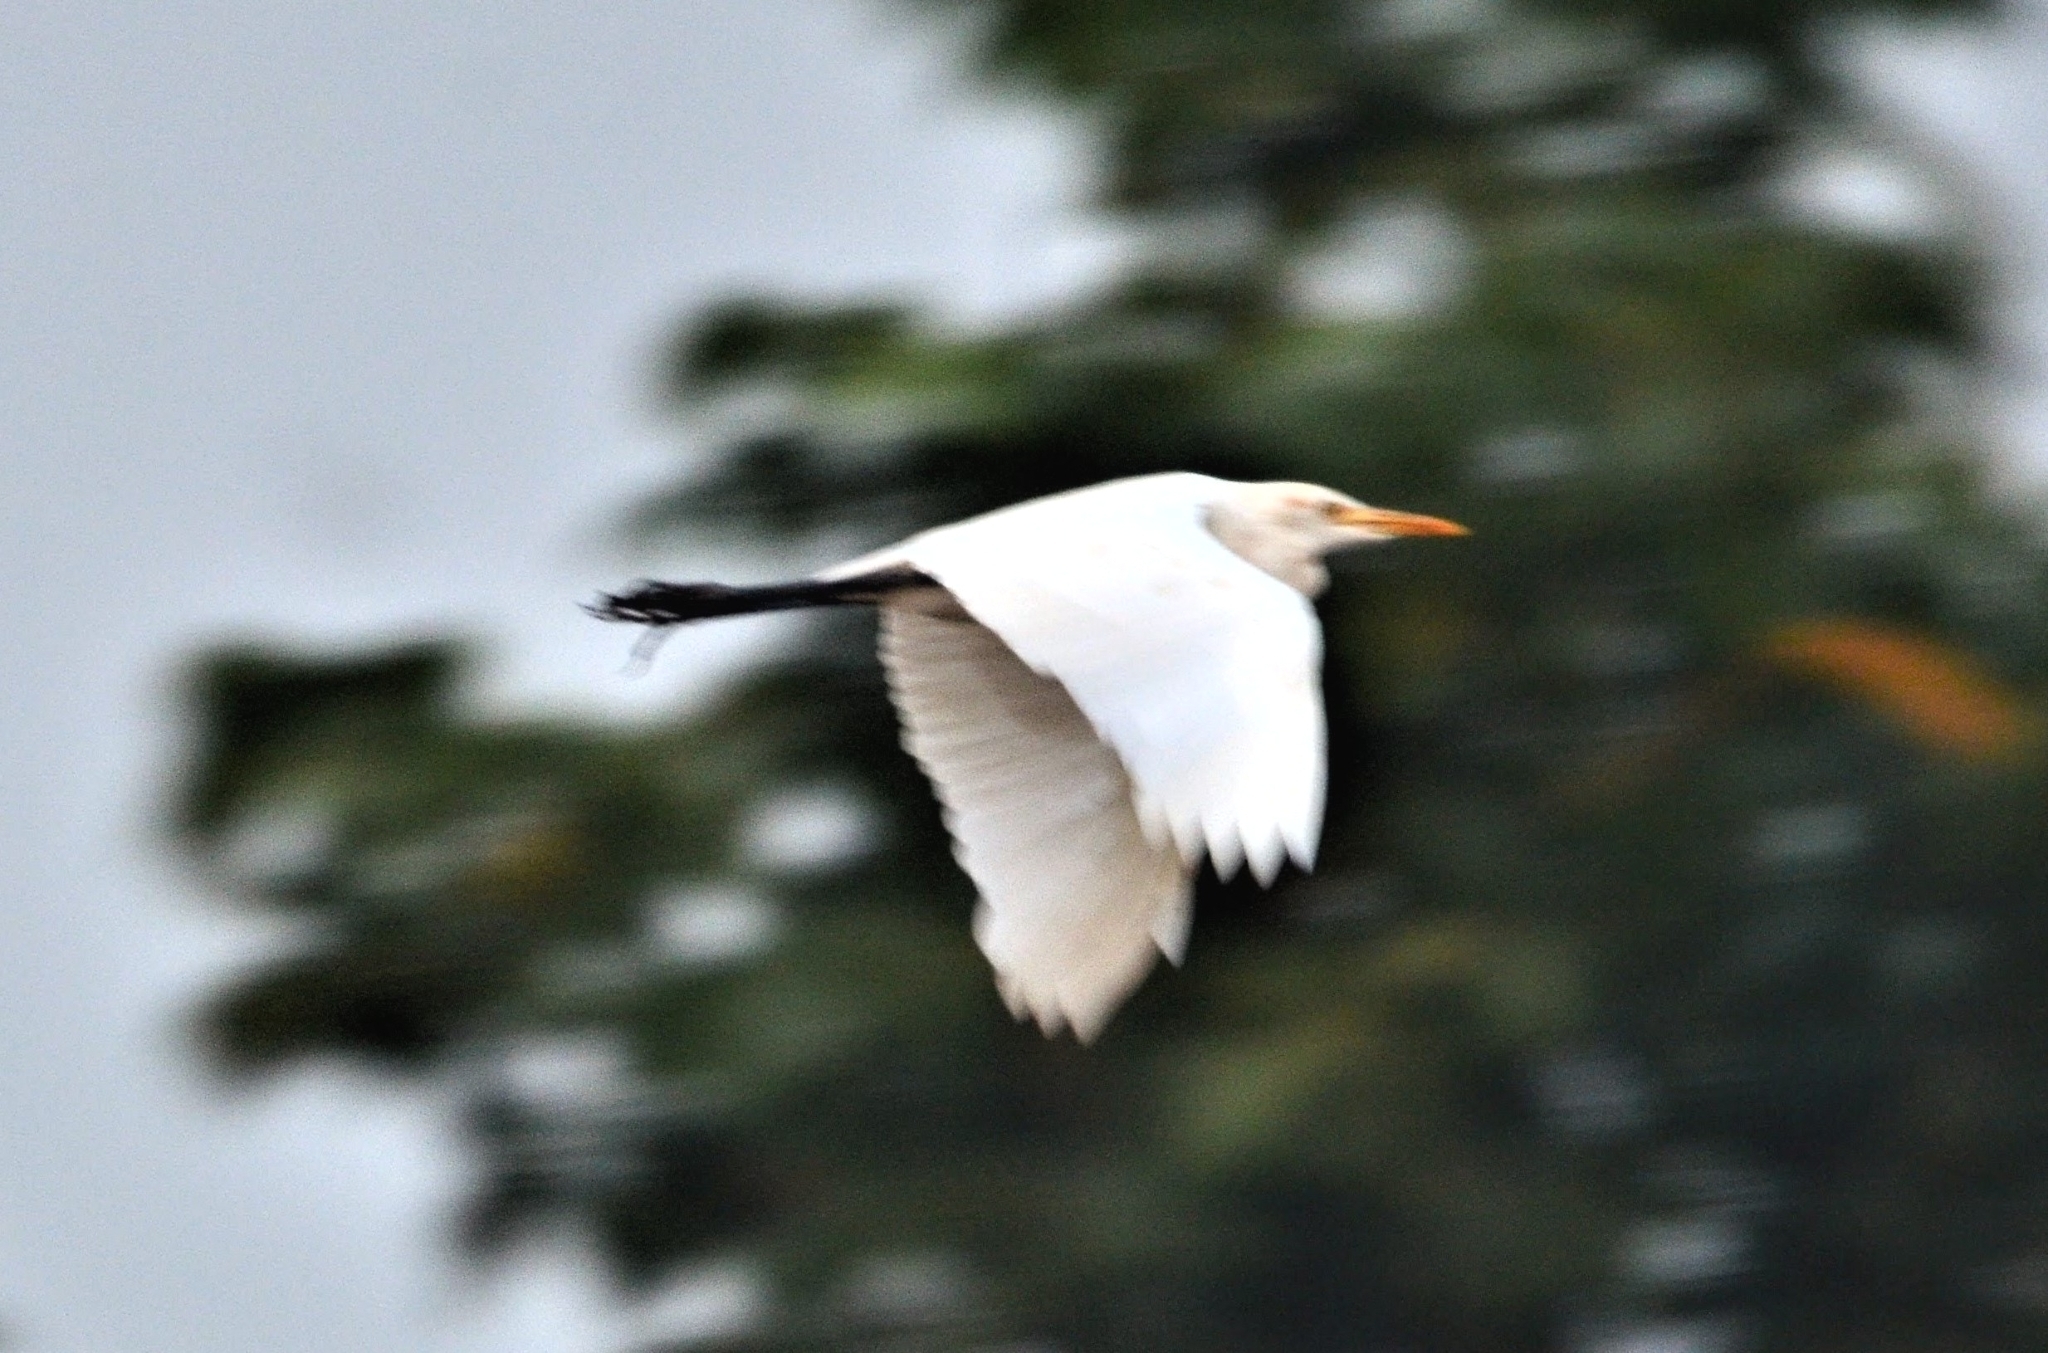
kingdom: Animalia
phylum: Chordata
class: Aves
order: Pelecaniformes
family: Ardeidae
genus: Bubulcus
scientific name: Bubulcus coromandus
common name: Eastern cattle egret
